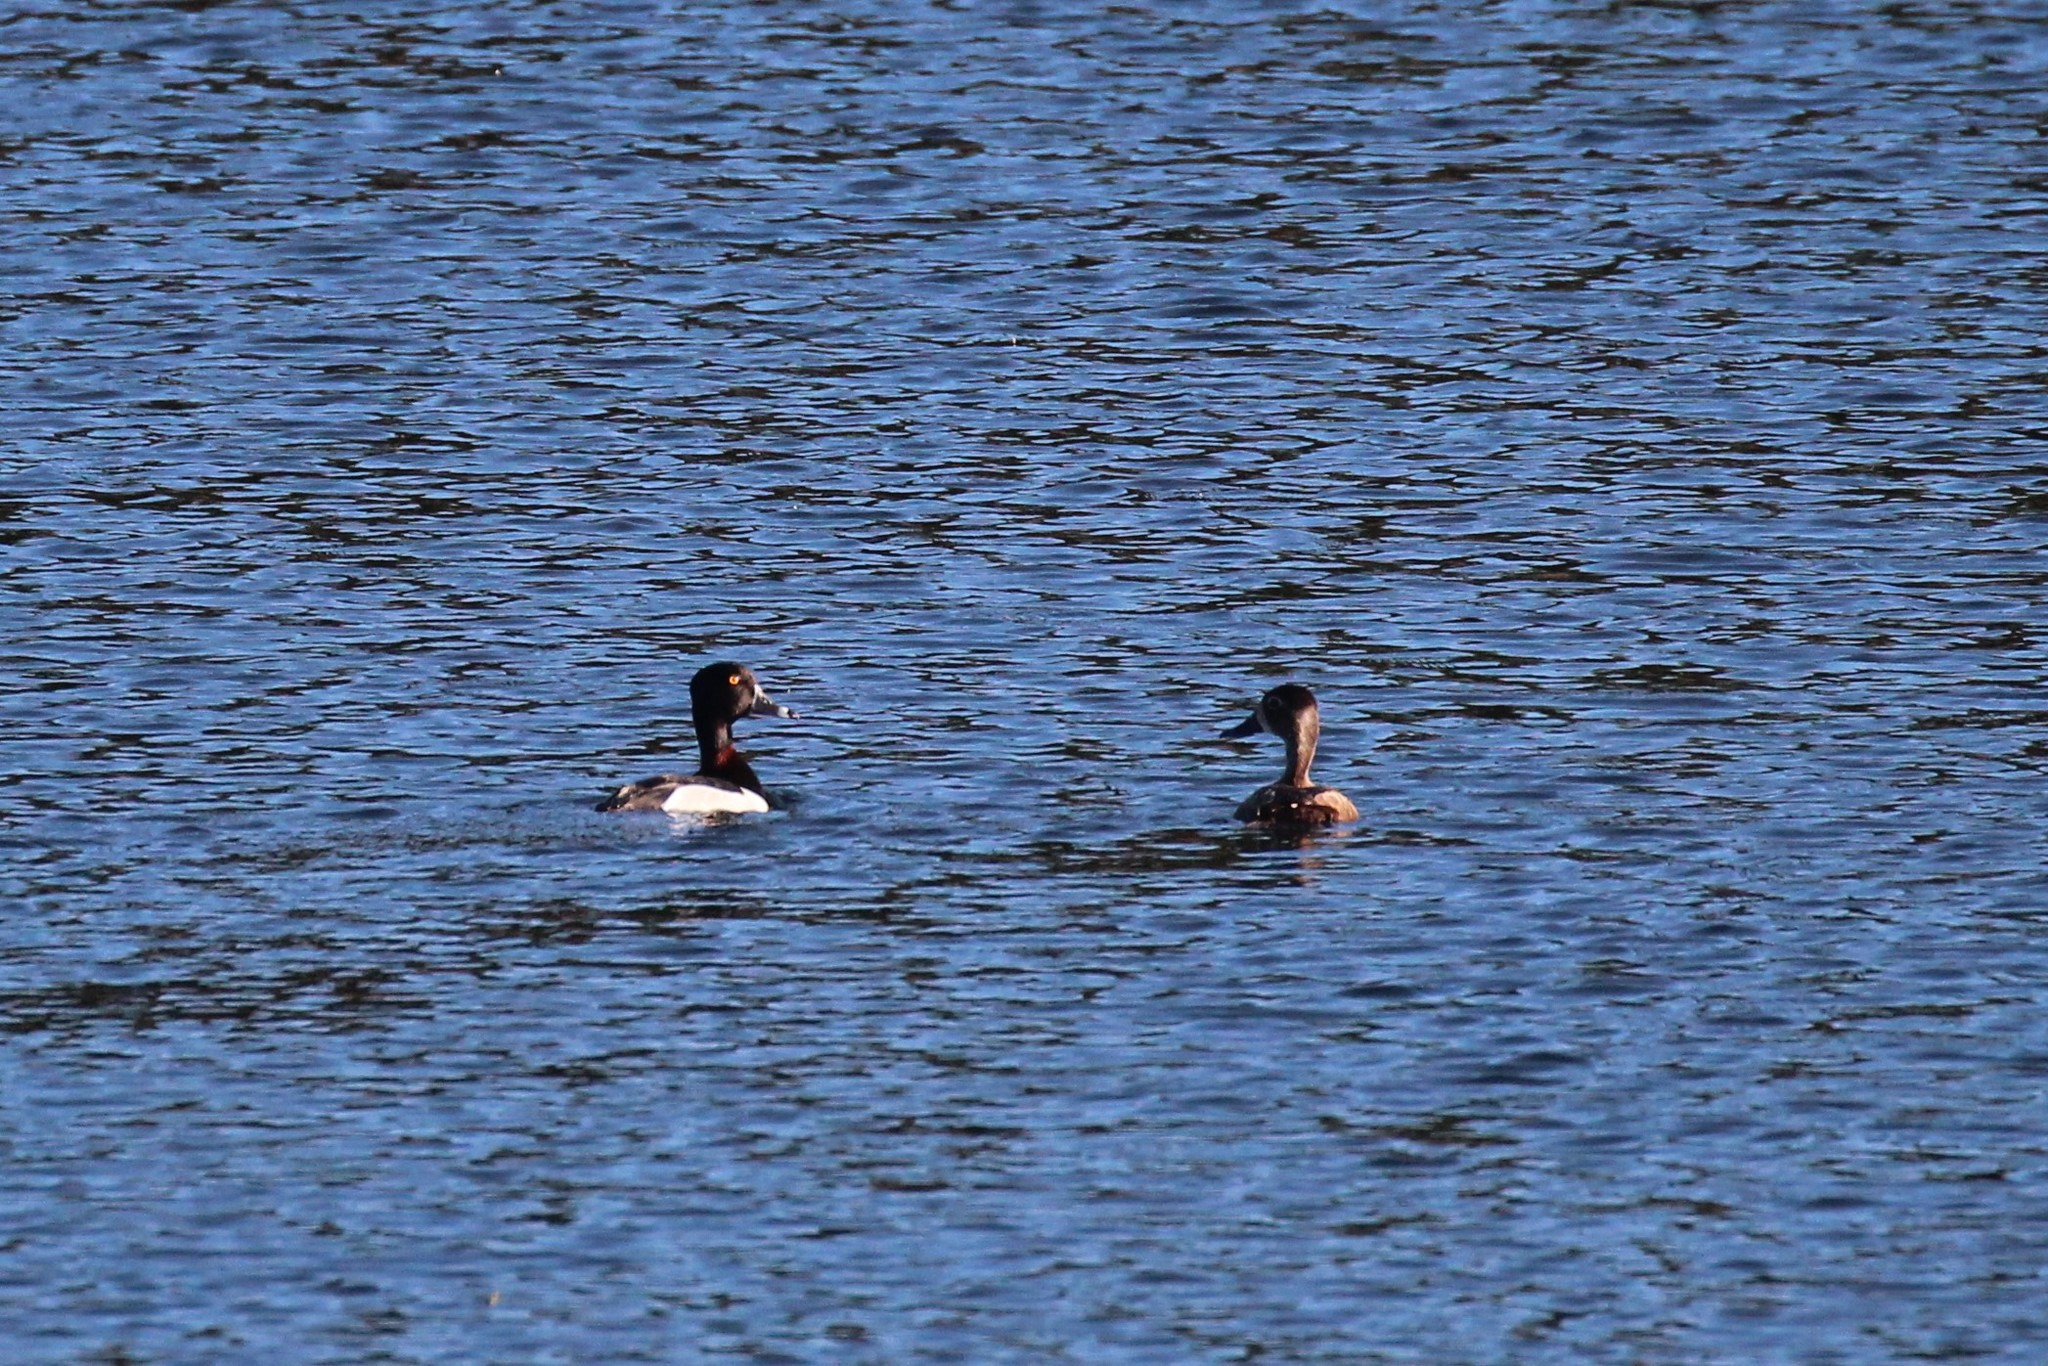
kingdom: Animalia
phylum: Chordata
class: Aves
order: Anseriformes
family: Anatidae
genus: Aythya
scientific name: Aythya collaris
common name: Ring-necked duck
